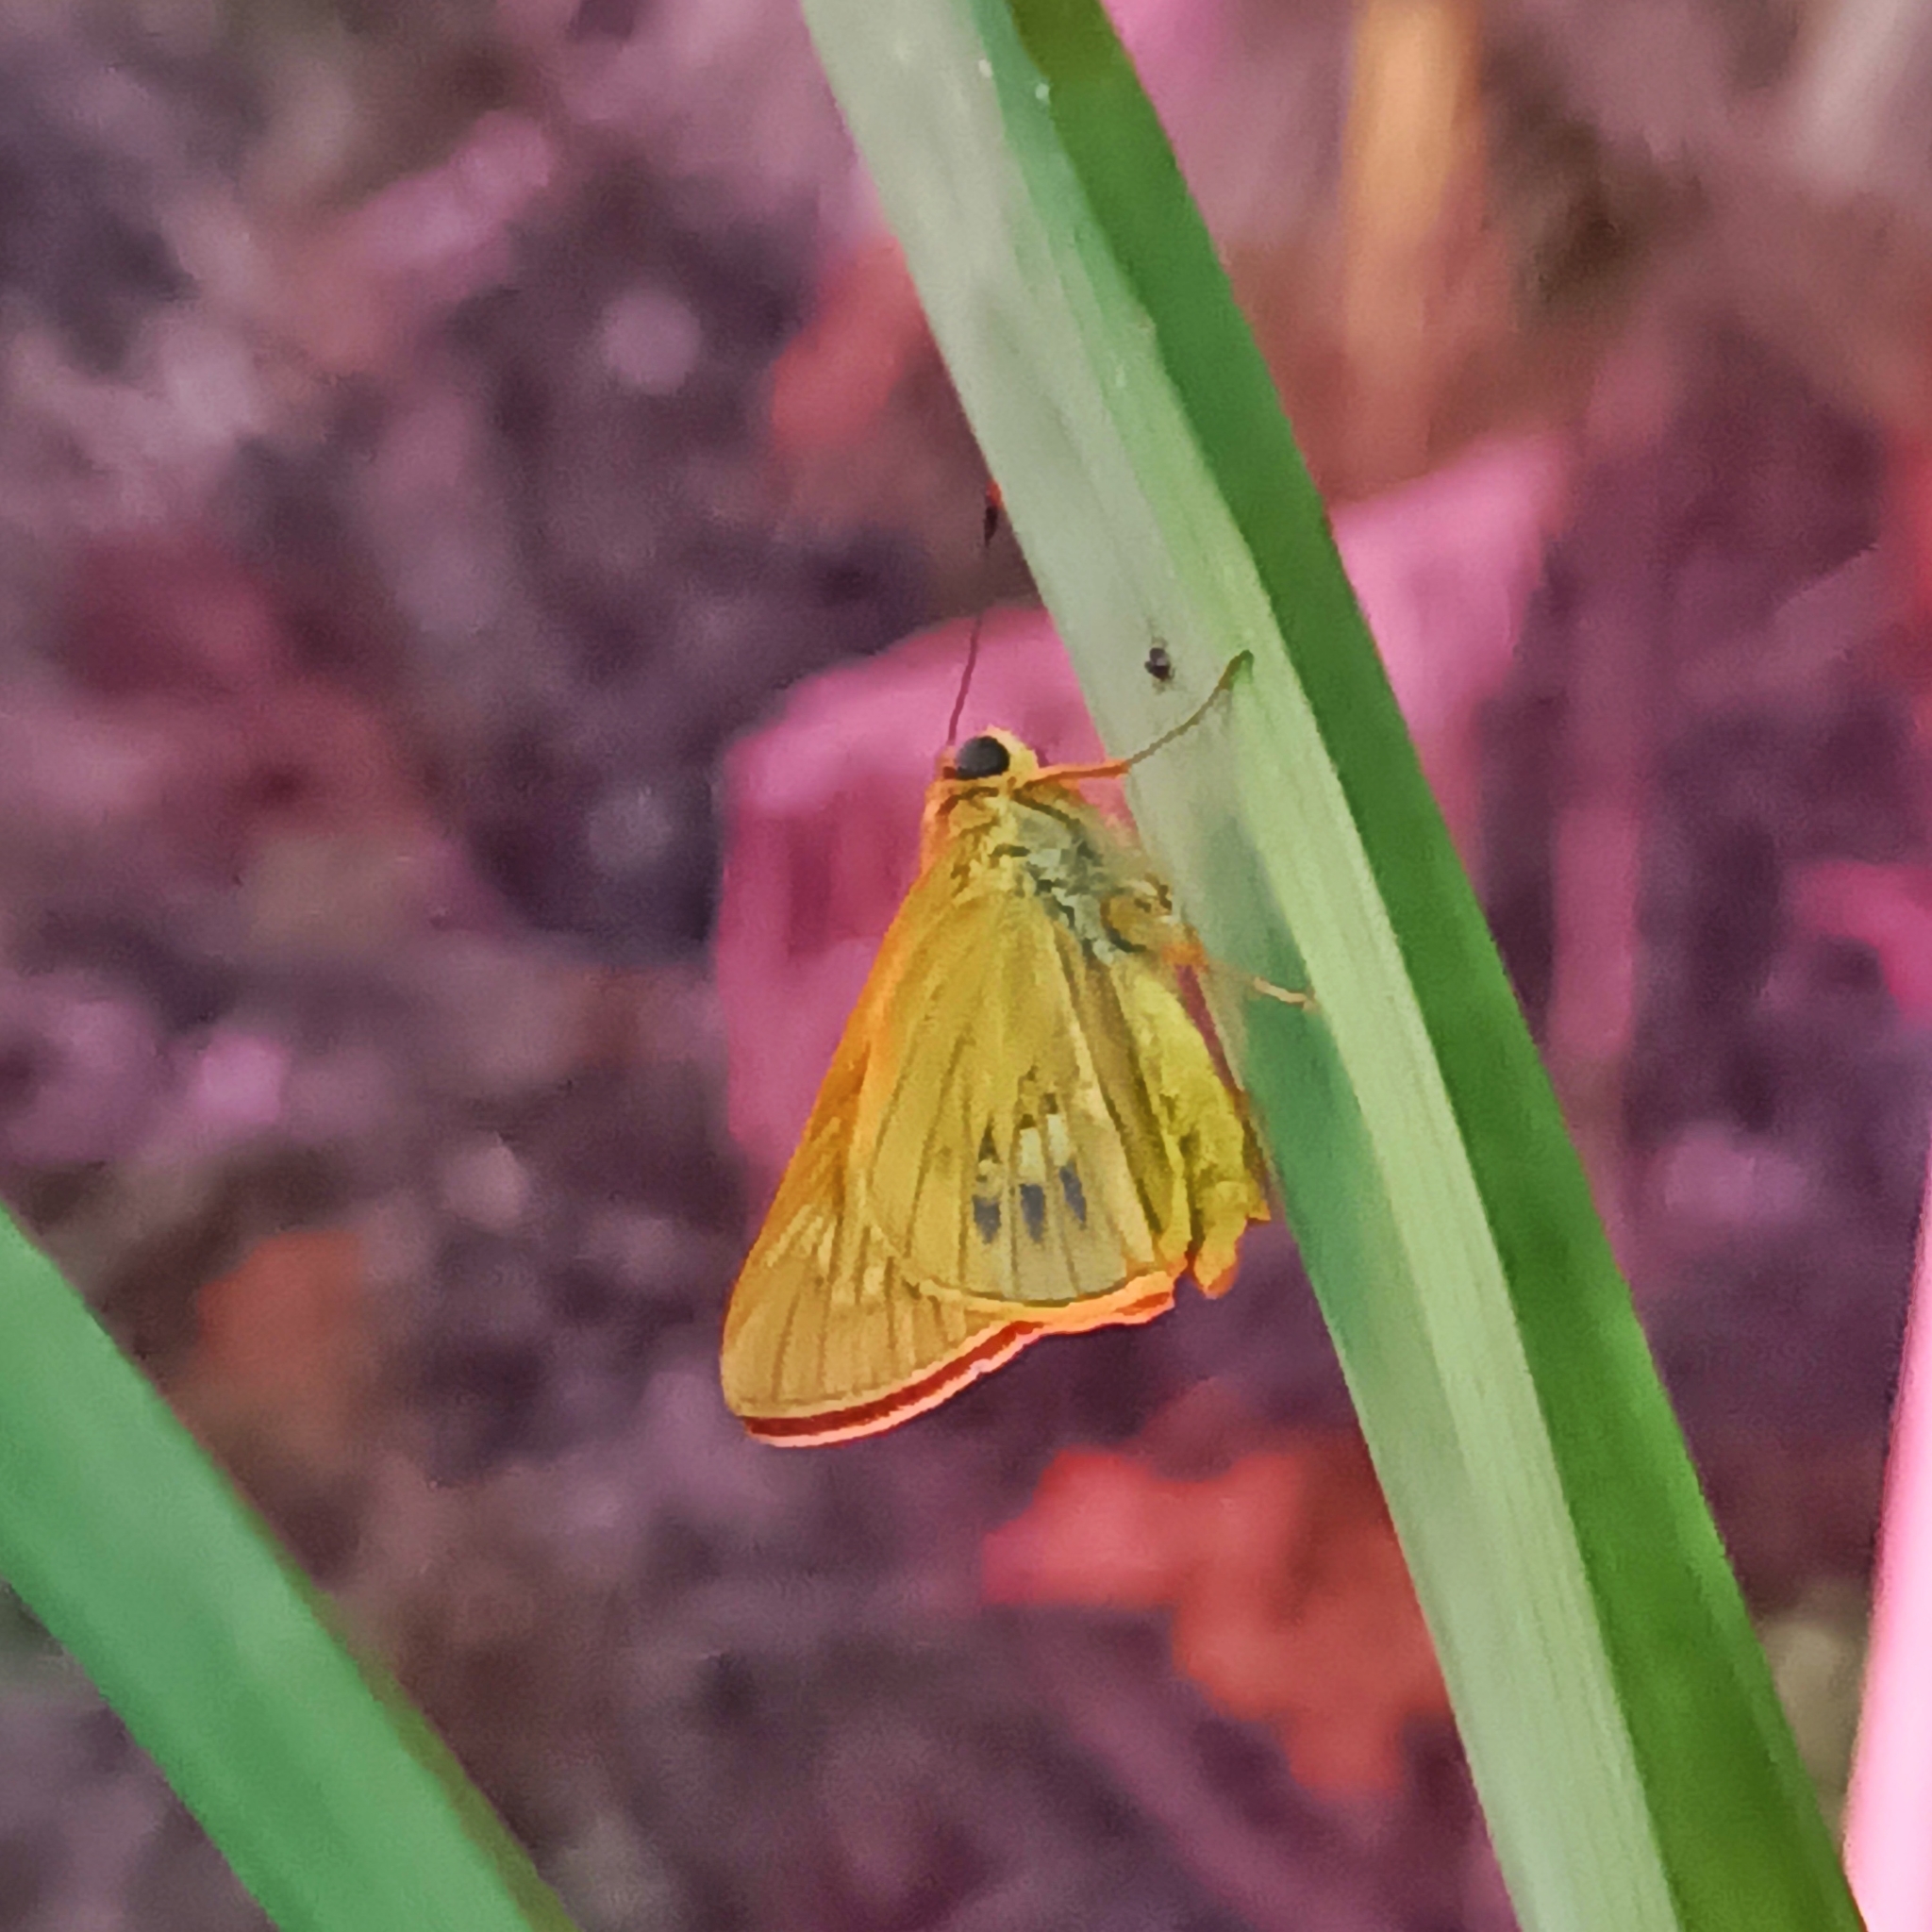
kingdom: Animalia
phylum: Arthropoda
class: Insecta
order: Lepidoptera
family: Hesperiidae
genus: Cephrenes
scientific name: Cephrenes
